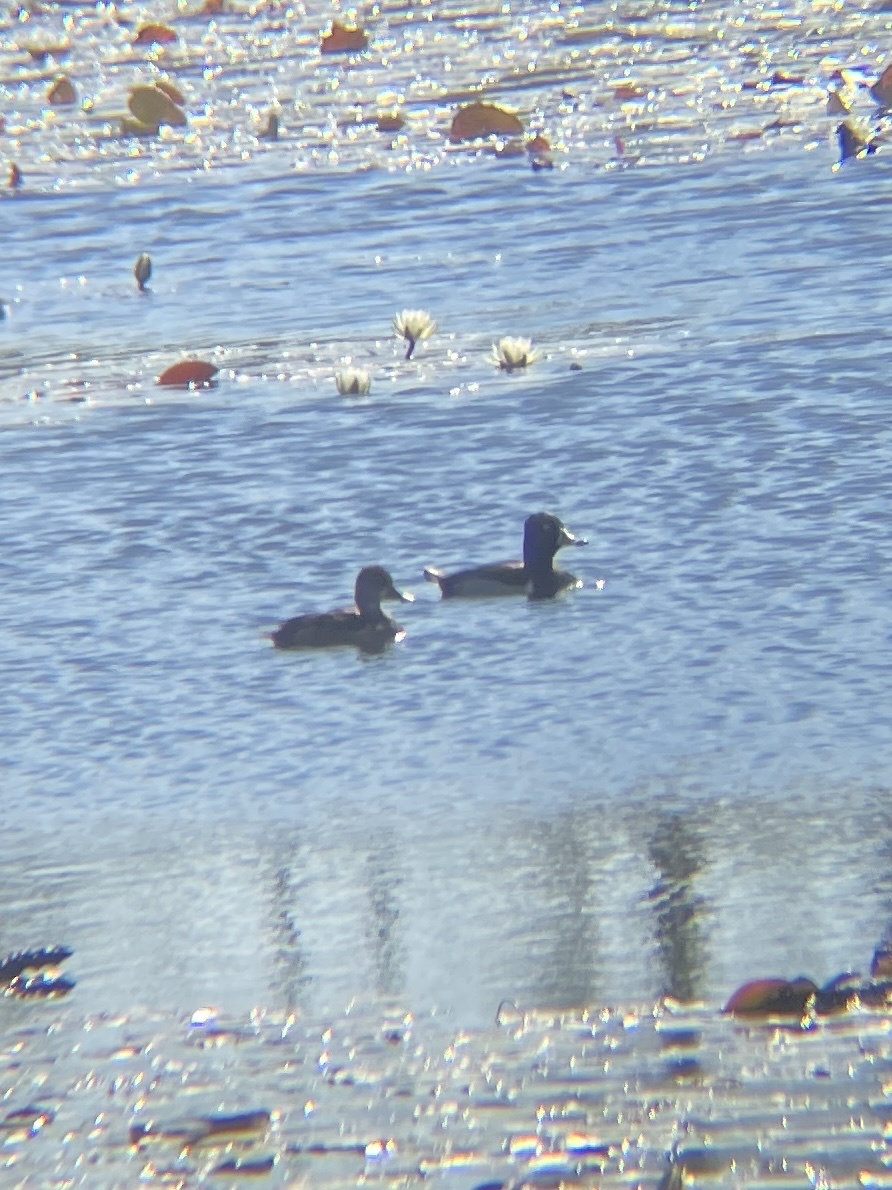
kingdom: Animalia
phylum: Chordata
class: Aves
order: Anseriformes
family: Anatidae
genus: Aythya
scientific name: Aythya collaris
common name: Ring-necked duck
